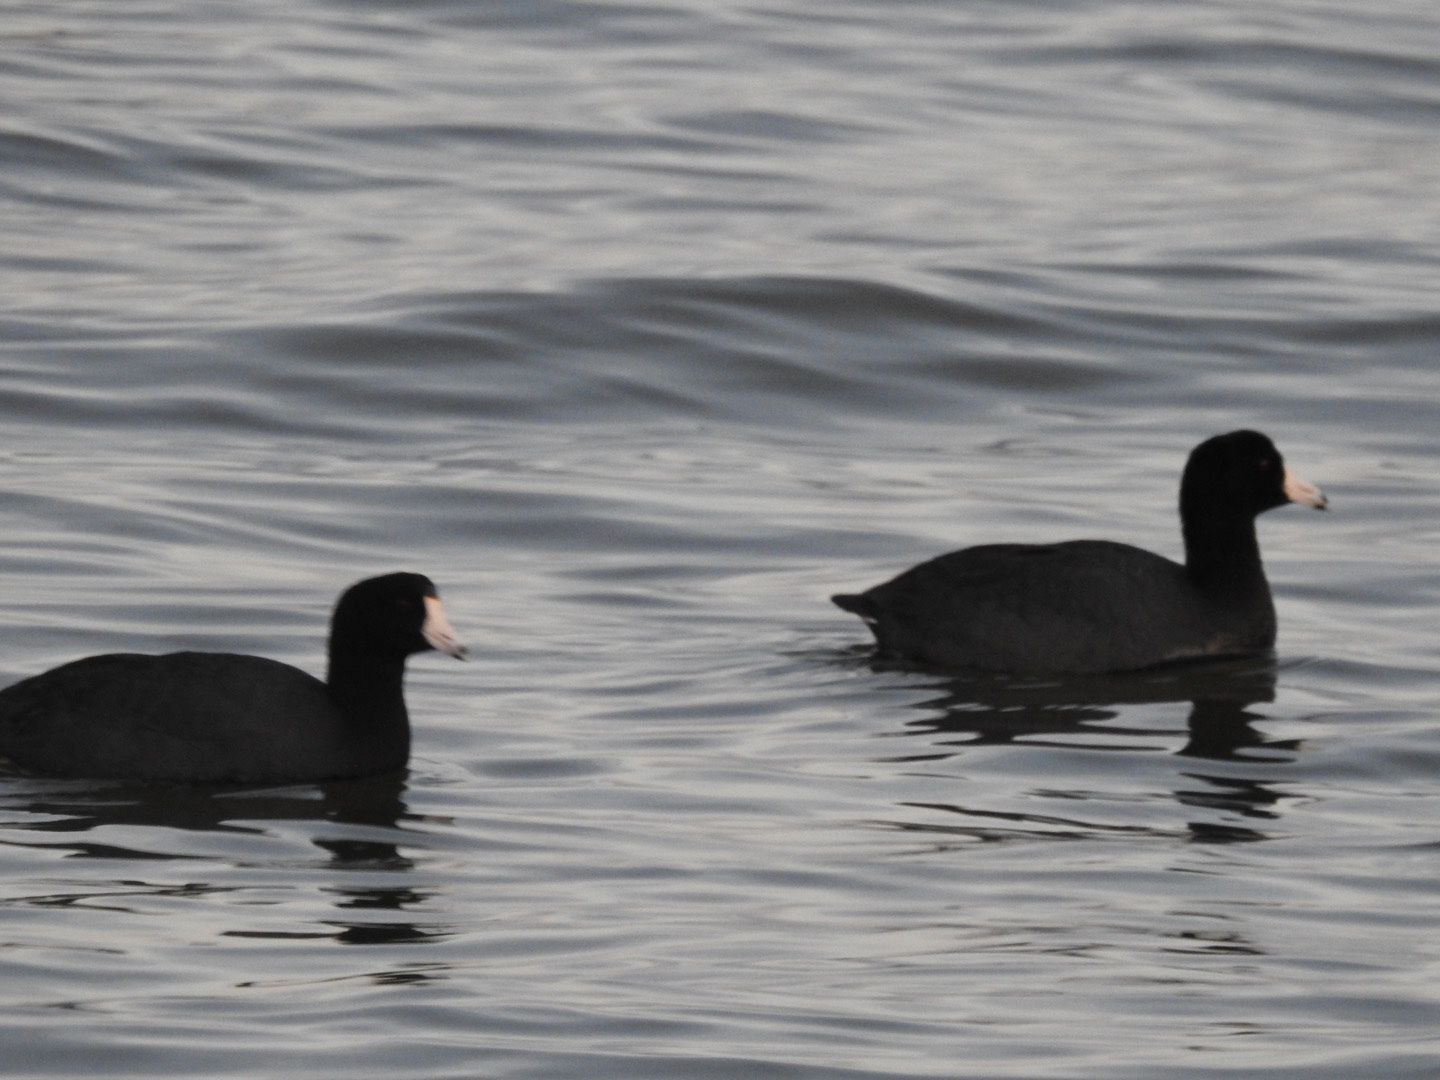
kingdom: Animalia
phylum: Chordata
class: Aves
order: Gruiformes
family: Rallidae
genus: Fulica
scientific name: Fulica americana
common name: American coot
